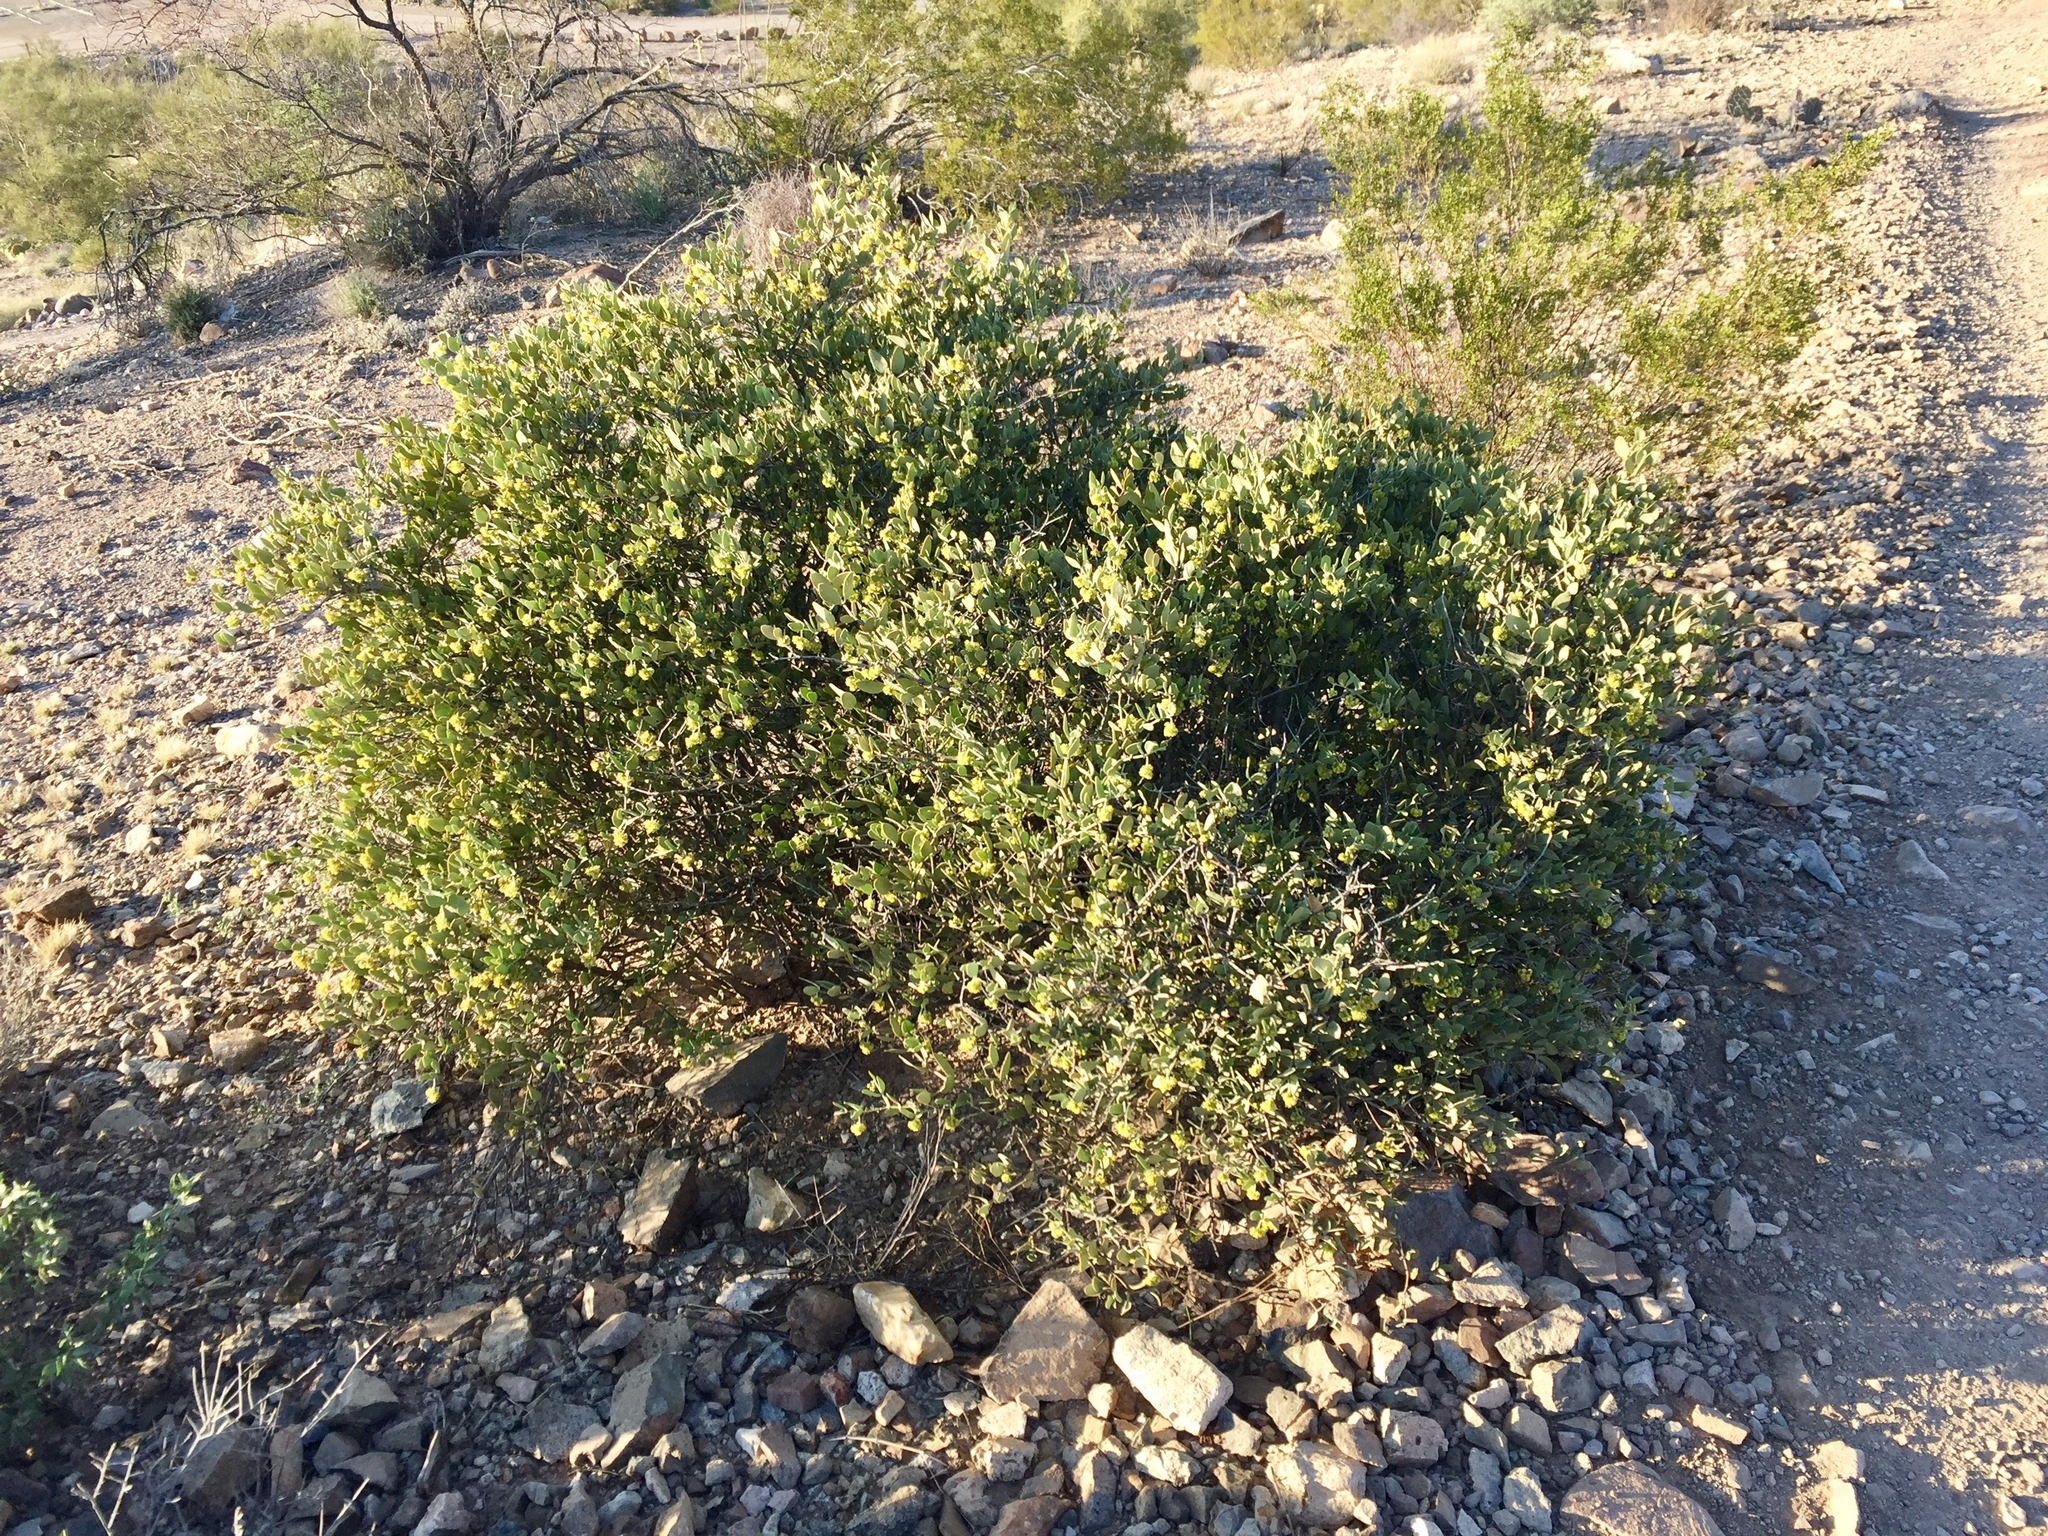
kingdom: Plantae
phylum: Tracheophyta
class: Magnoliopsida
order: Caryophyllales
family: Simmondsiaceae
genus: Simmondsia
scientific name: Simmondsia chinensis
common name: Jojoba
